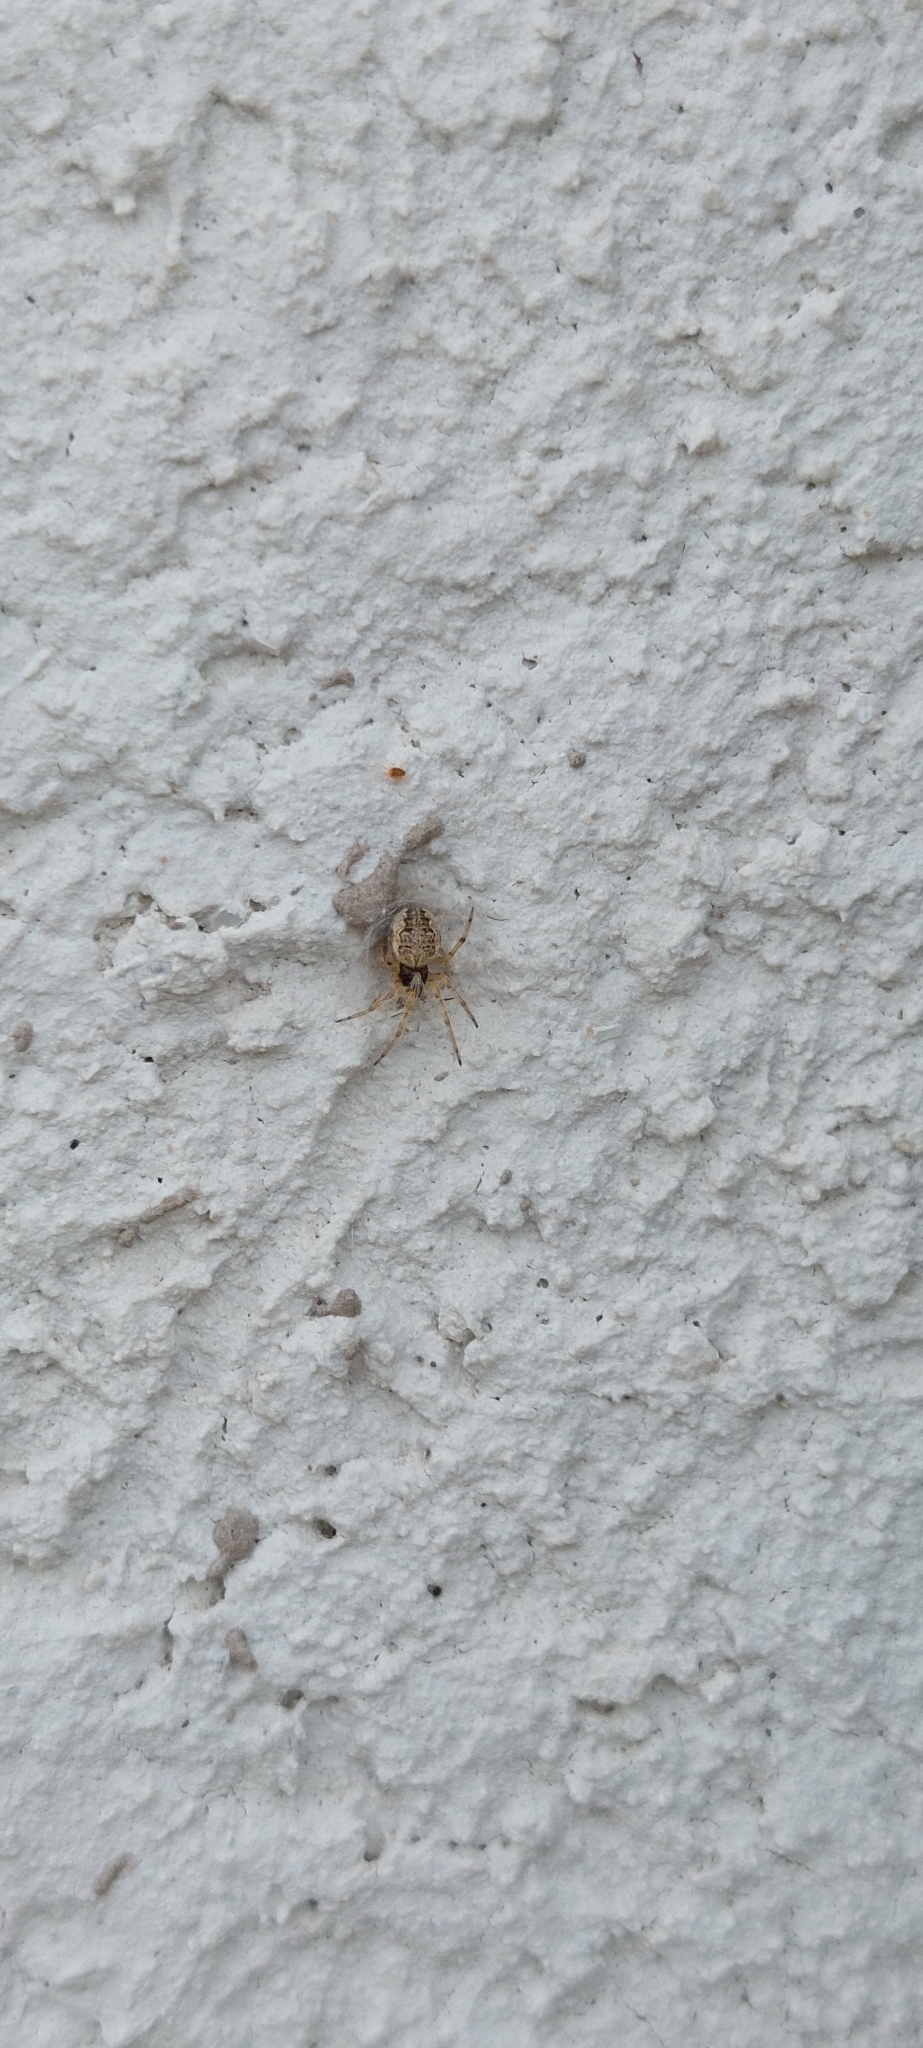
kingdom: Animalia
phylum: Arthropoda
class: Arachnida
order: Araneae
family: Araneidae
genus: Metepeira
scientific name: Metepeira
